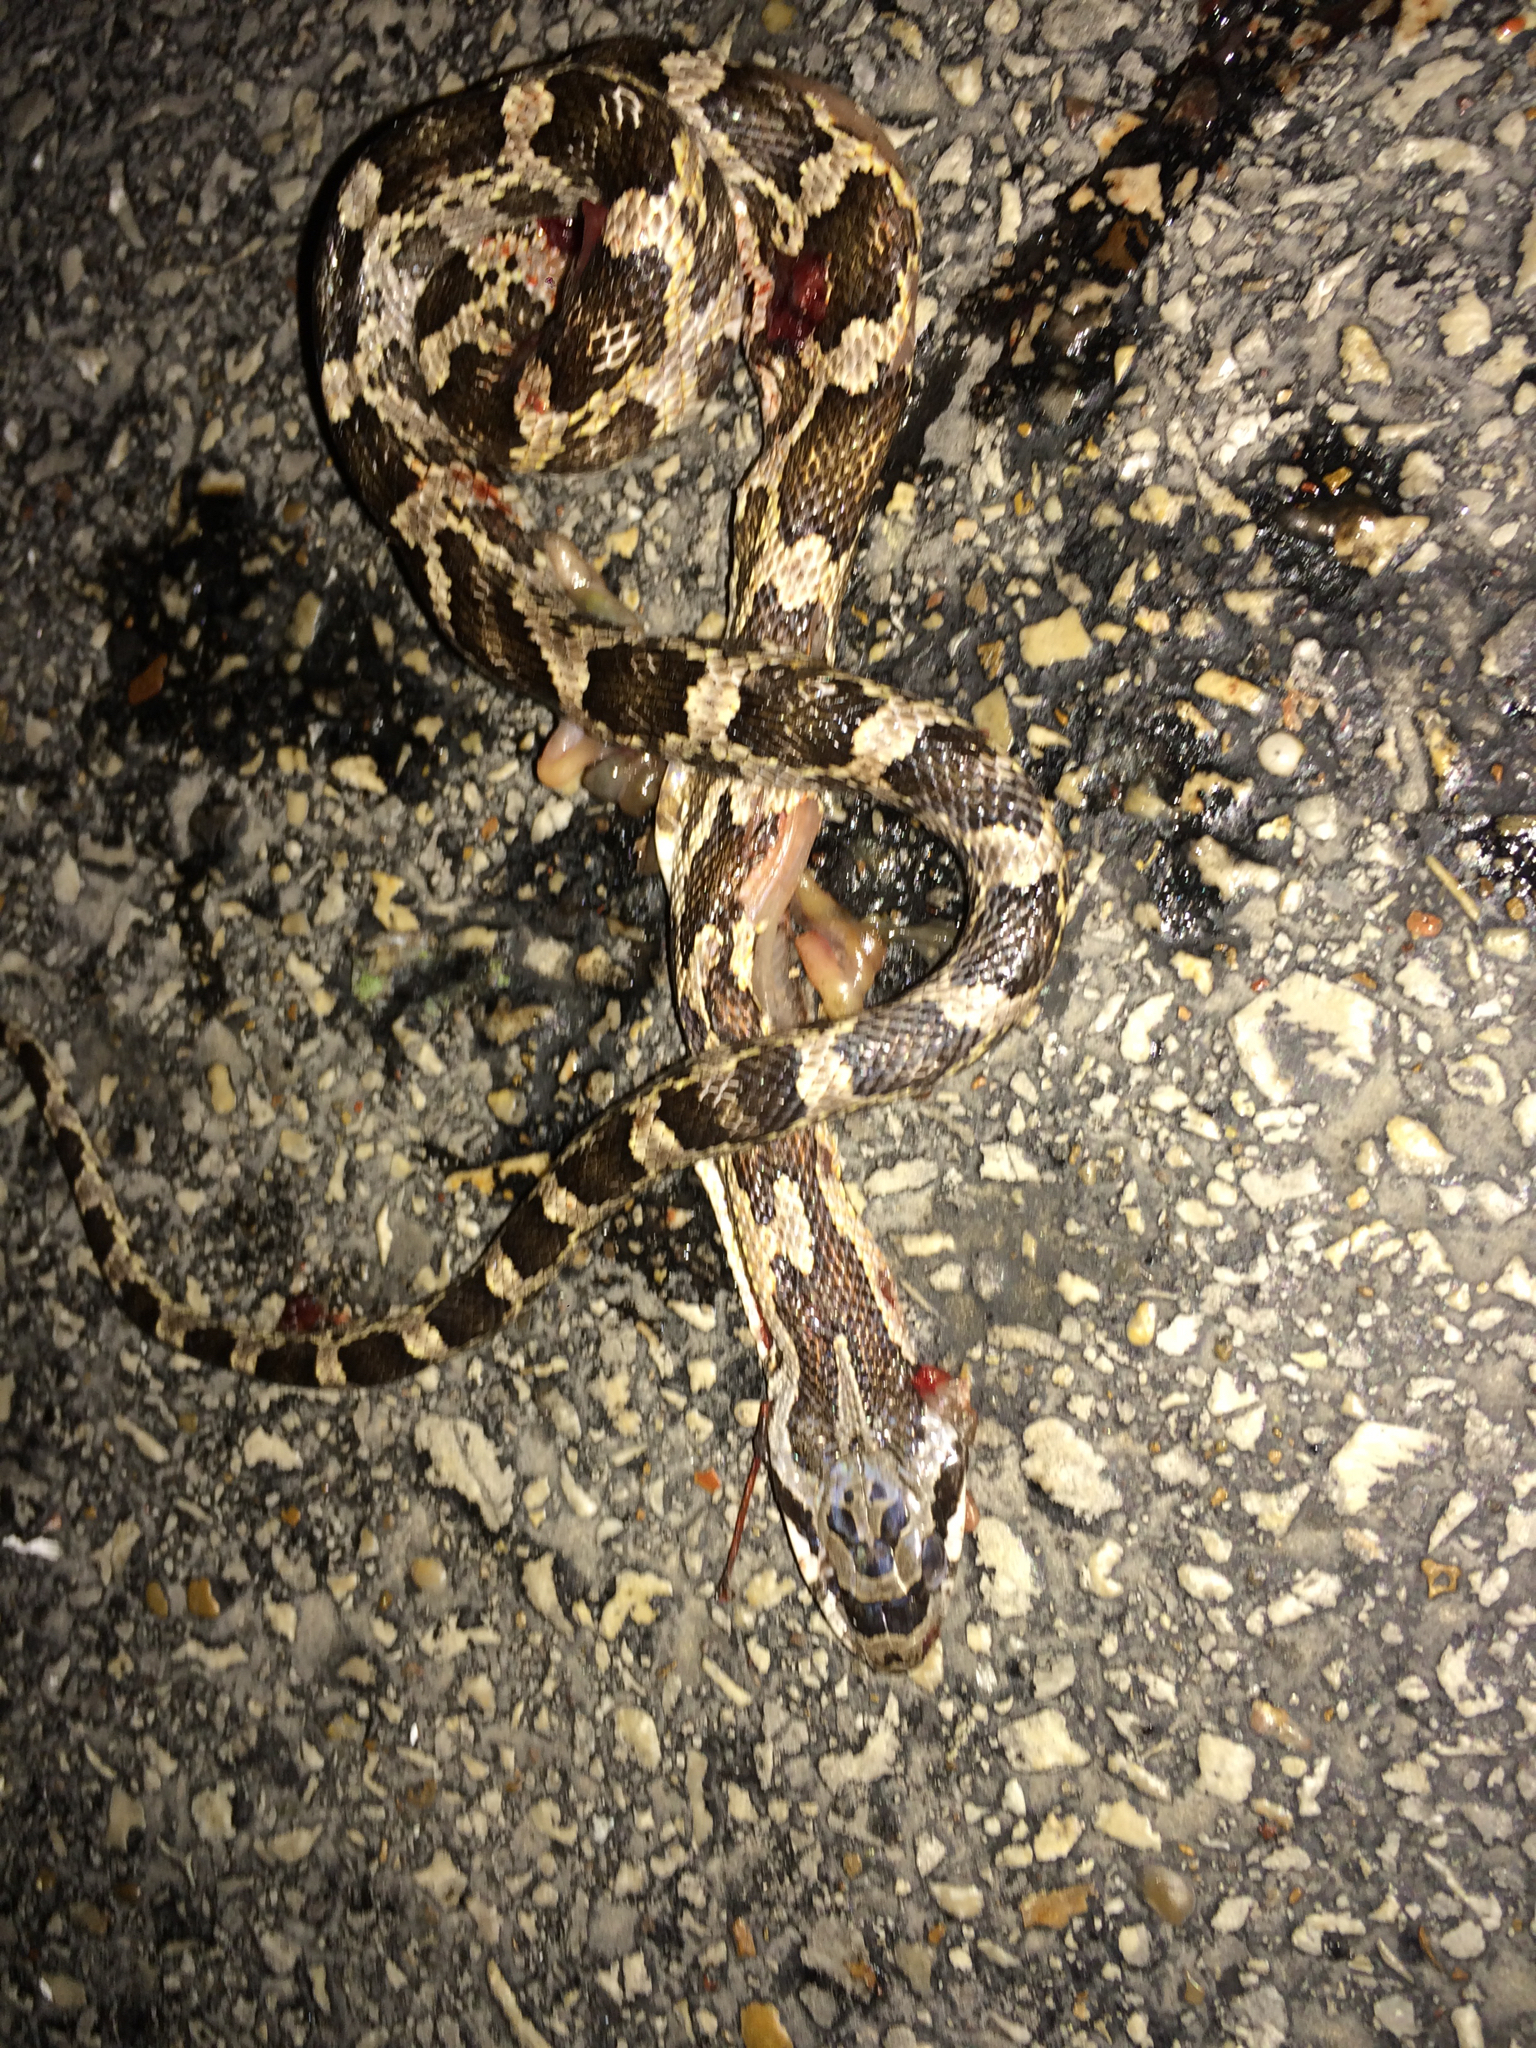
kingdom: Animalia
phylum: Chordata
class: Squamata
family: Colubridae
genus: Pantherophis
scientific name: Pantherophis obsoletus
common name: Black rat snake
